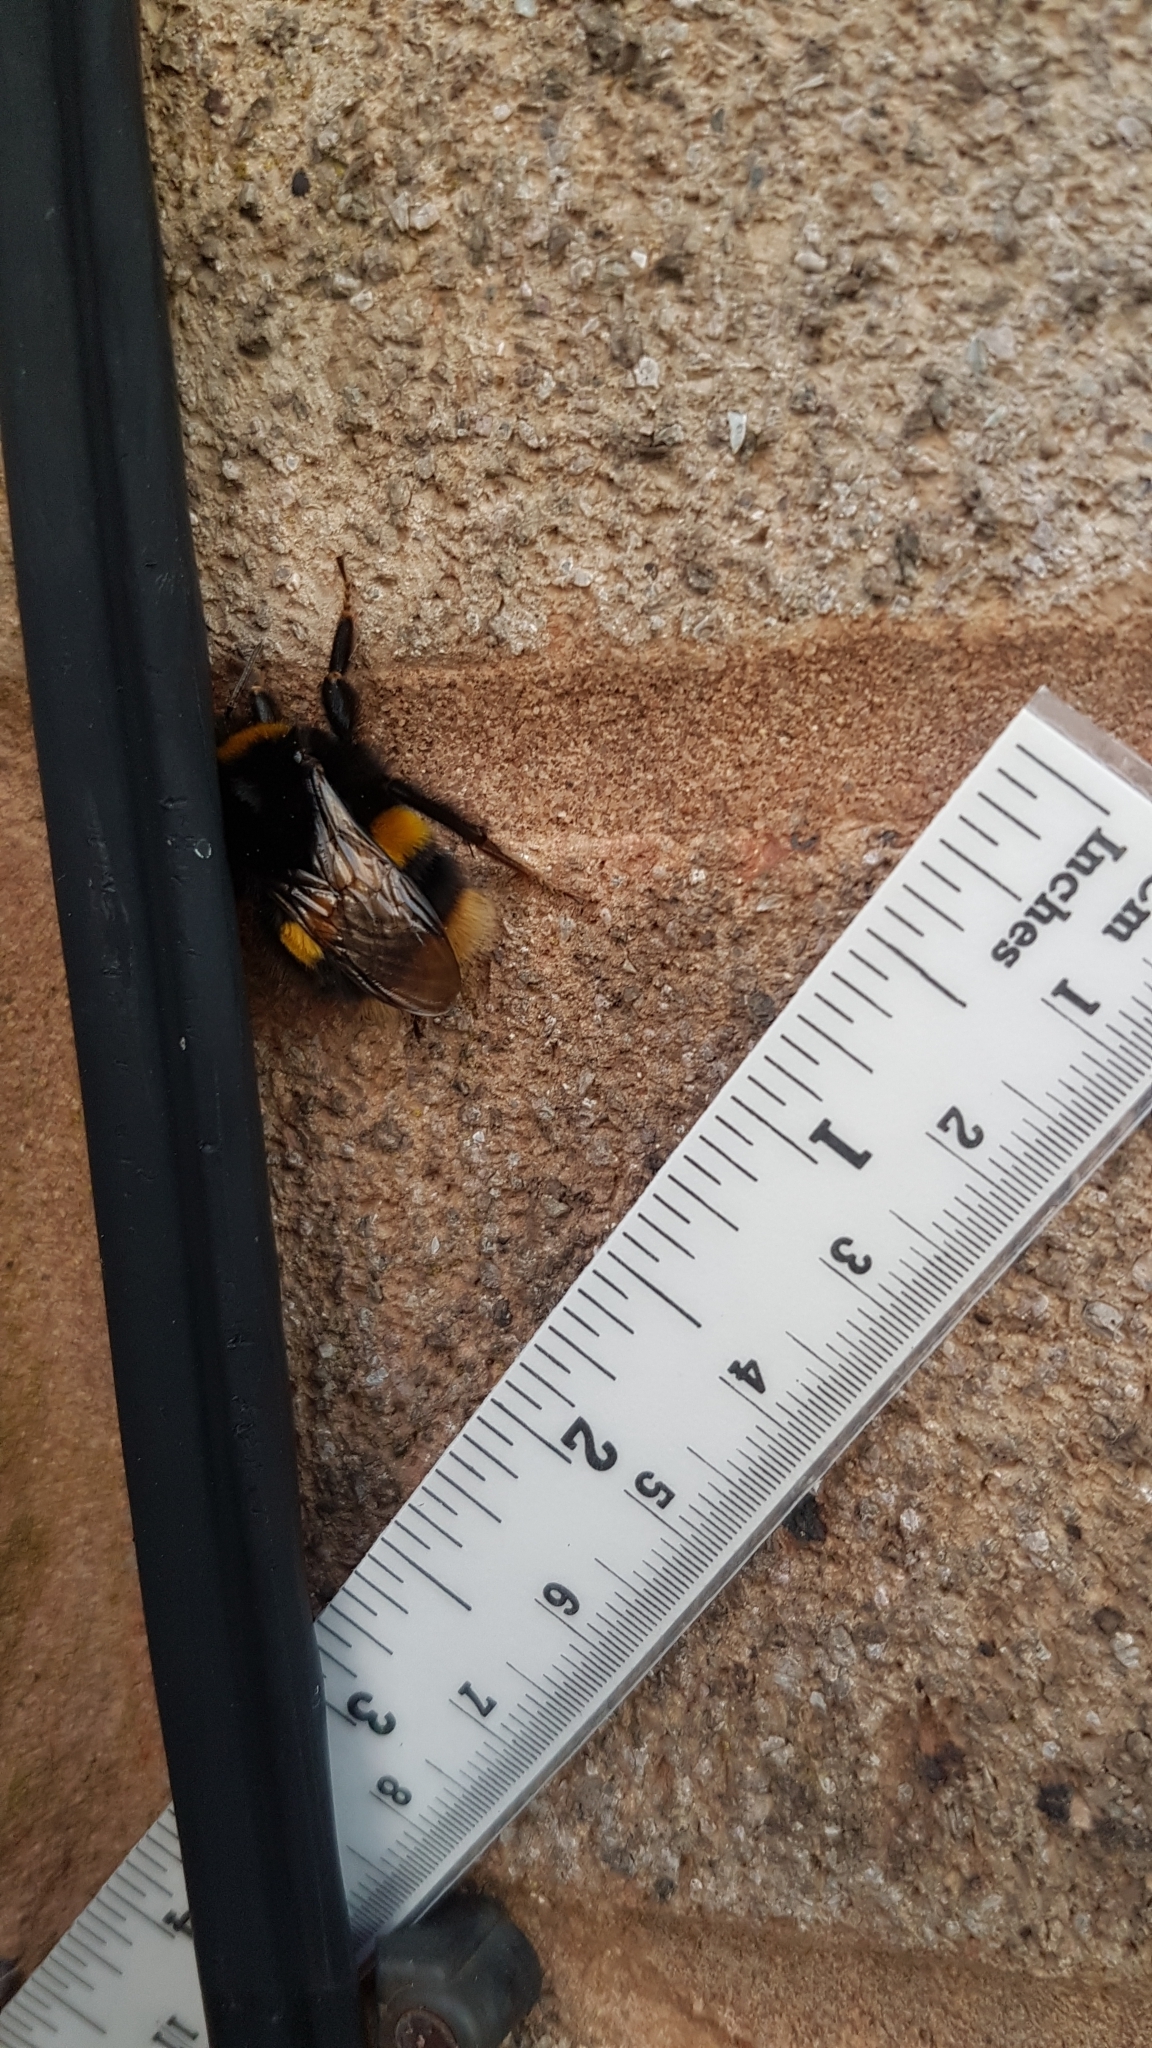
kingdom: Animalia
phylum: Arthropoda
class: Insecta
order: Hymenoptera
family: Apidae
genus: Bombus
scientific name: Bombus terrestris
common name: Buff-tailed bumblebee
